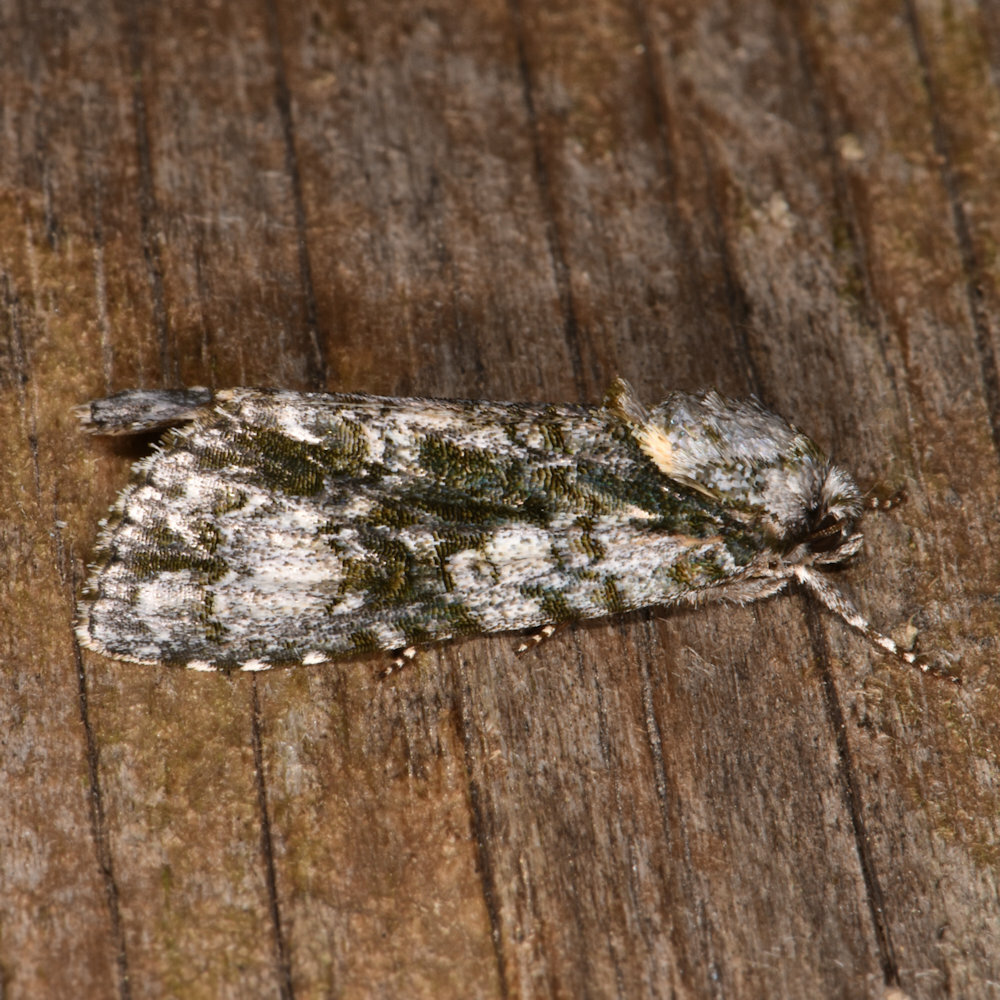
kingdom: Animalia
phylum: Arthropoda
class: Insecta
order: Lepidoptera
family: Noctuidae
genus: Acronicta
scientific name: Acronicta superans
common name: Splendid dagger
